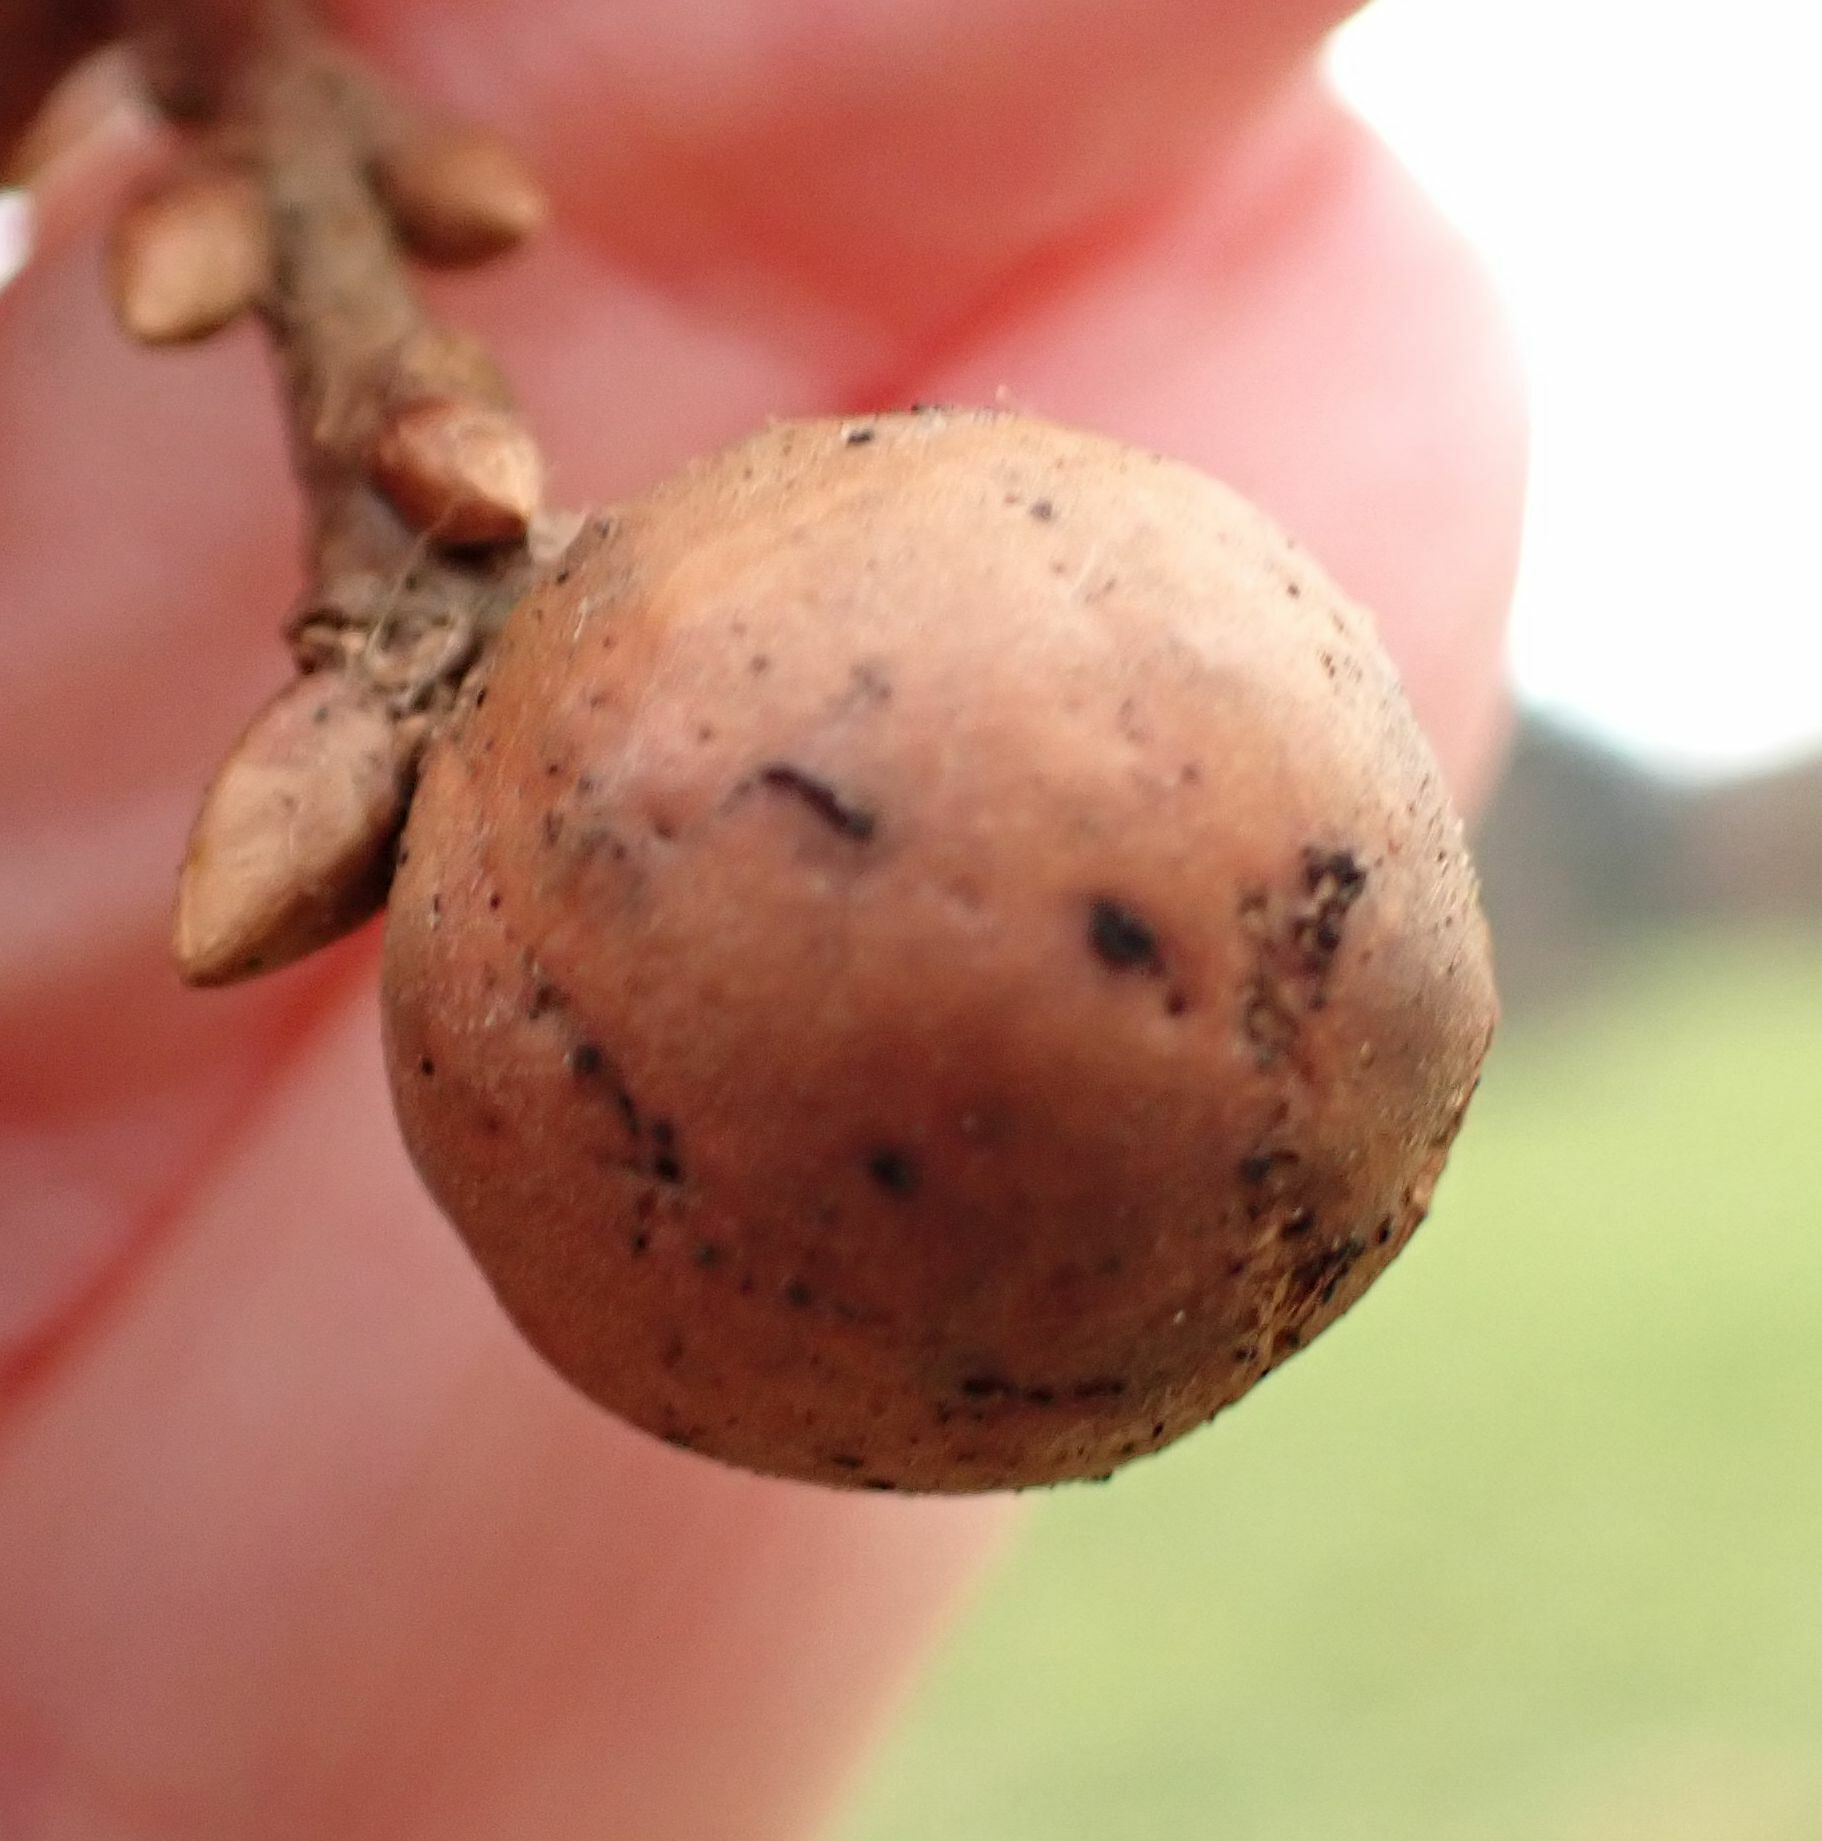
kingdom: Animalia
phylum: Arthropoda
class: Insecta
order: Hymenoptera
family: Cynipidae
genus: Andricus
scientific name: Andricus kollari
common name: Marble gall
